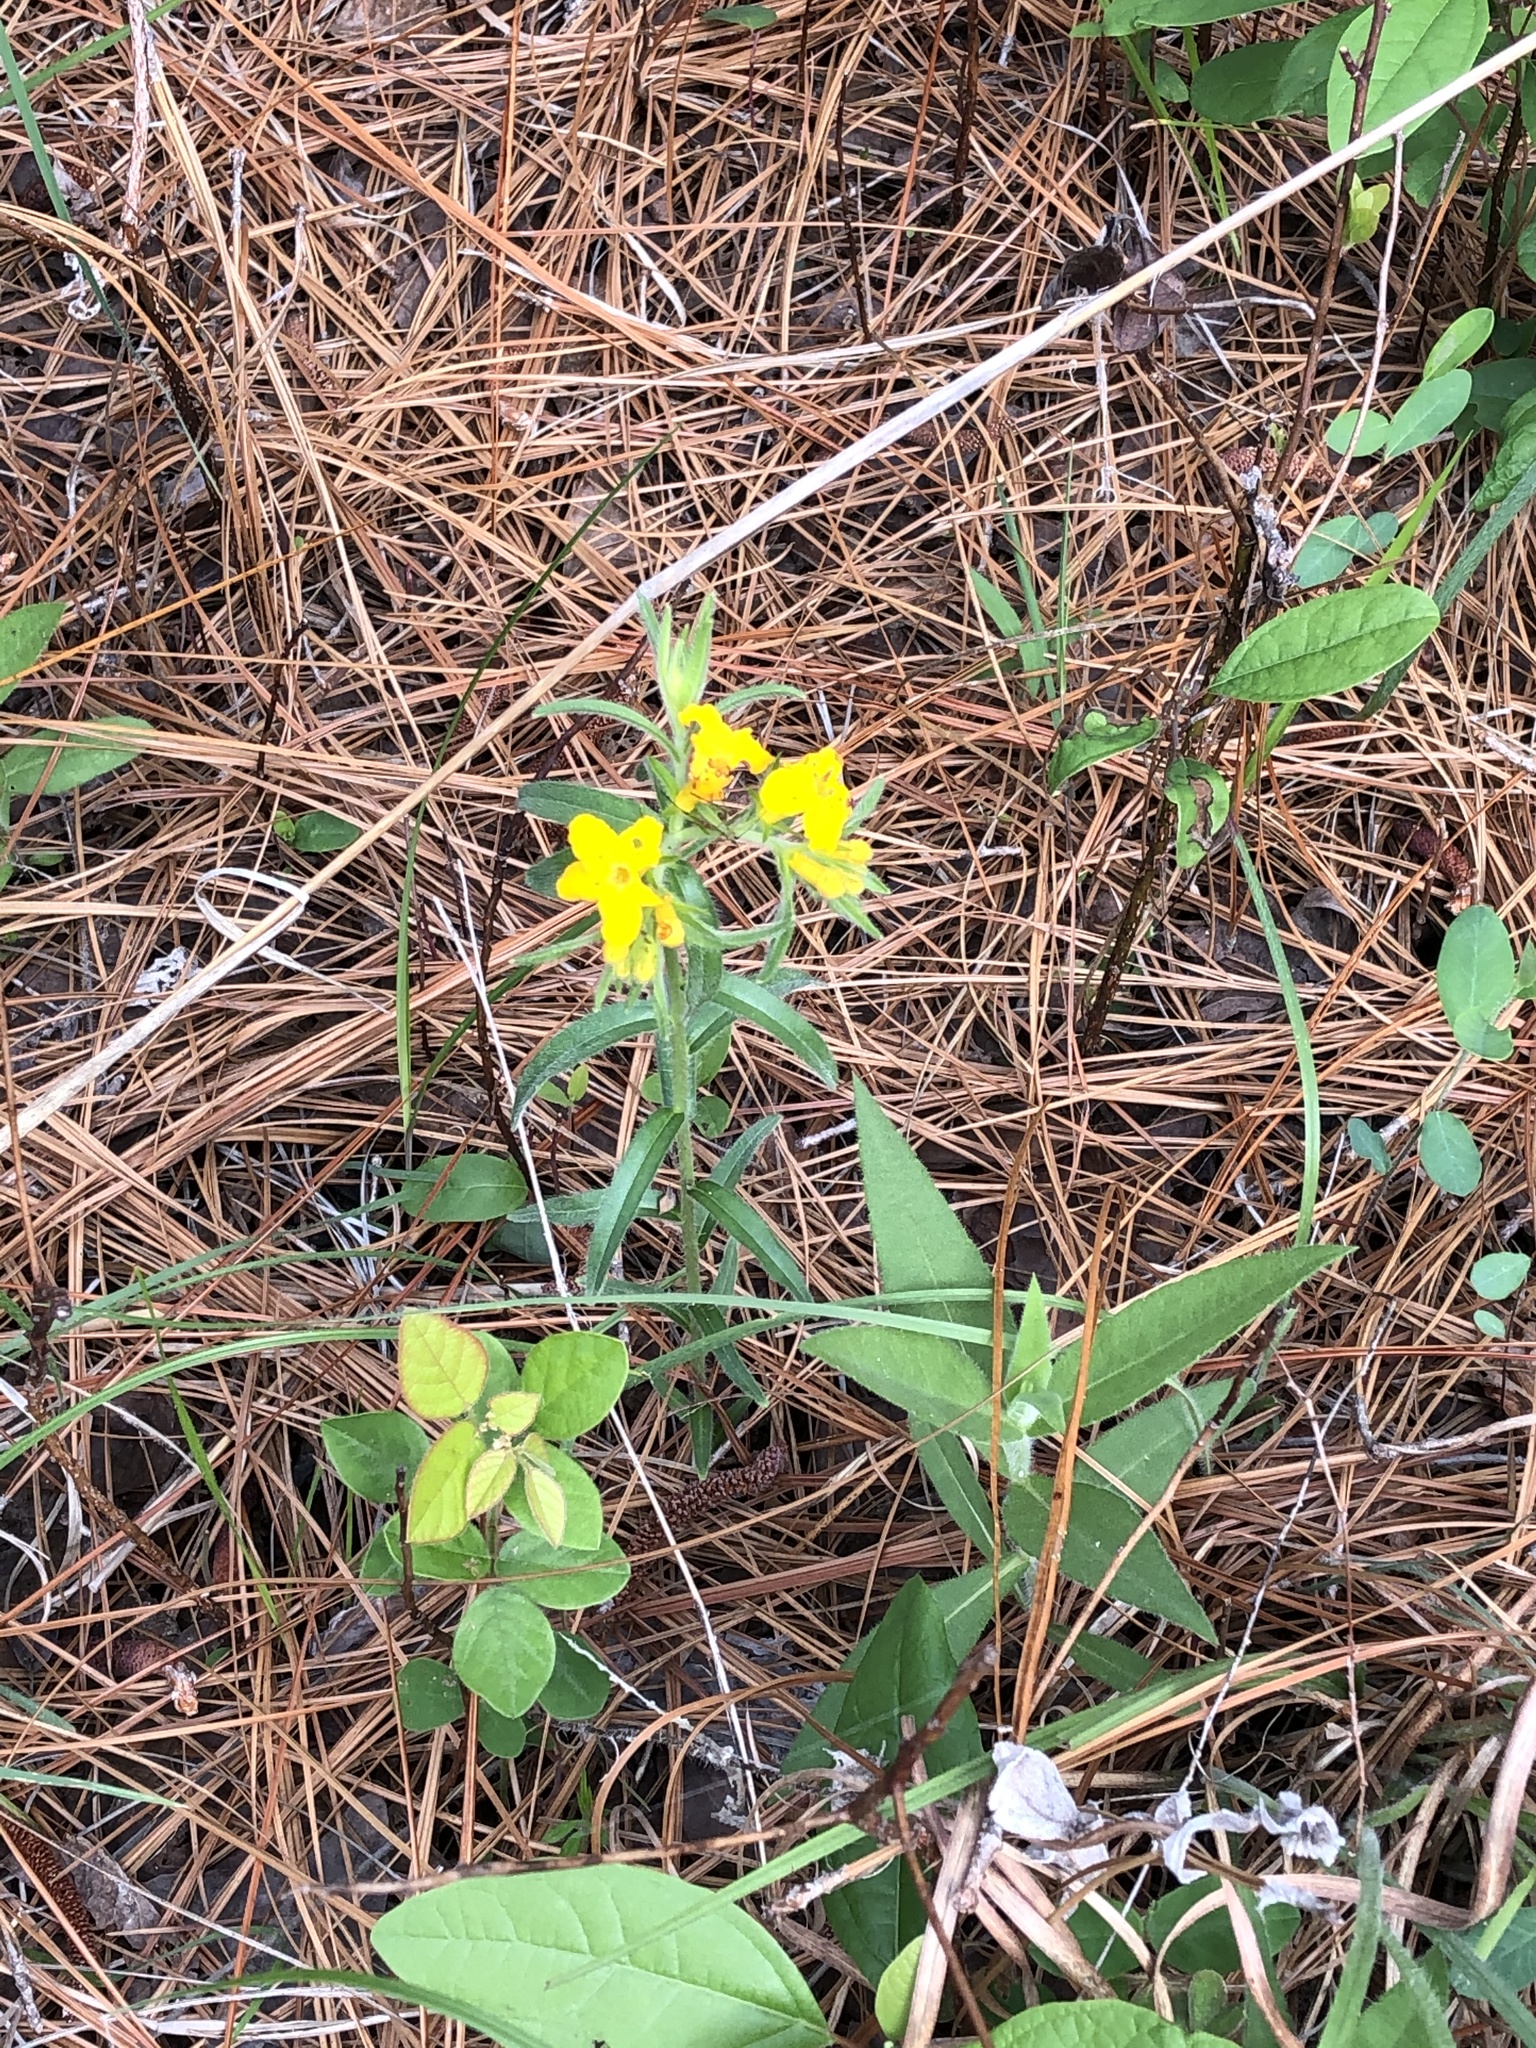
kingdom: Plantae
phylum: Tracheophyta
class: Magnoliopsida
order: Boraginales
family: Boraginaceae
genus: Lithospermum
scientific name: Lithospermum caroliniense
